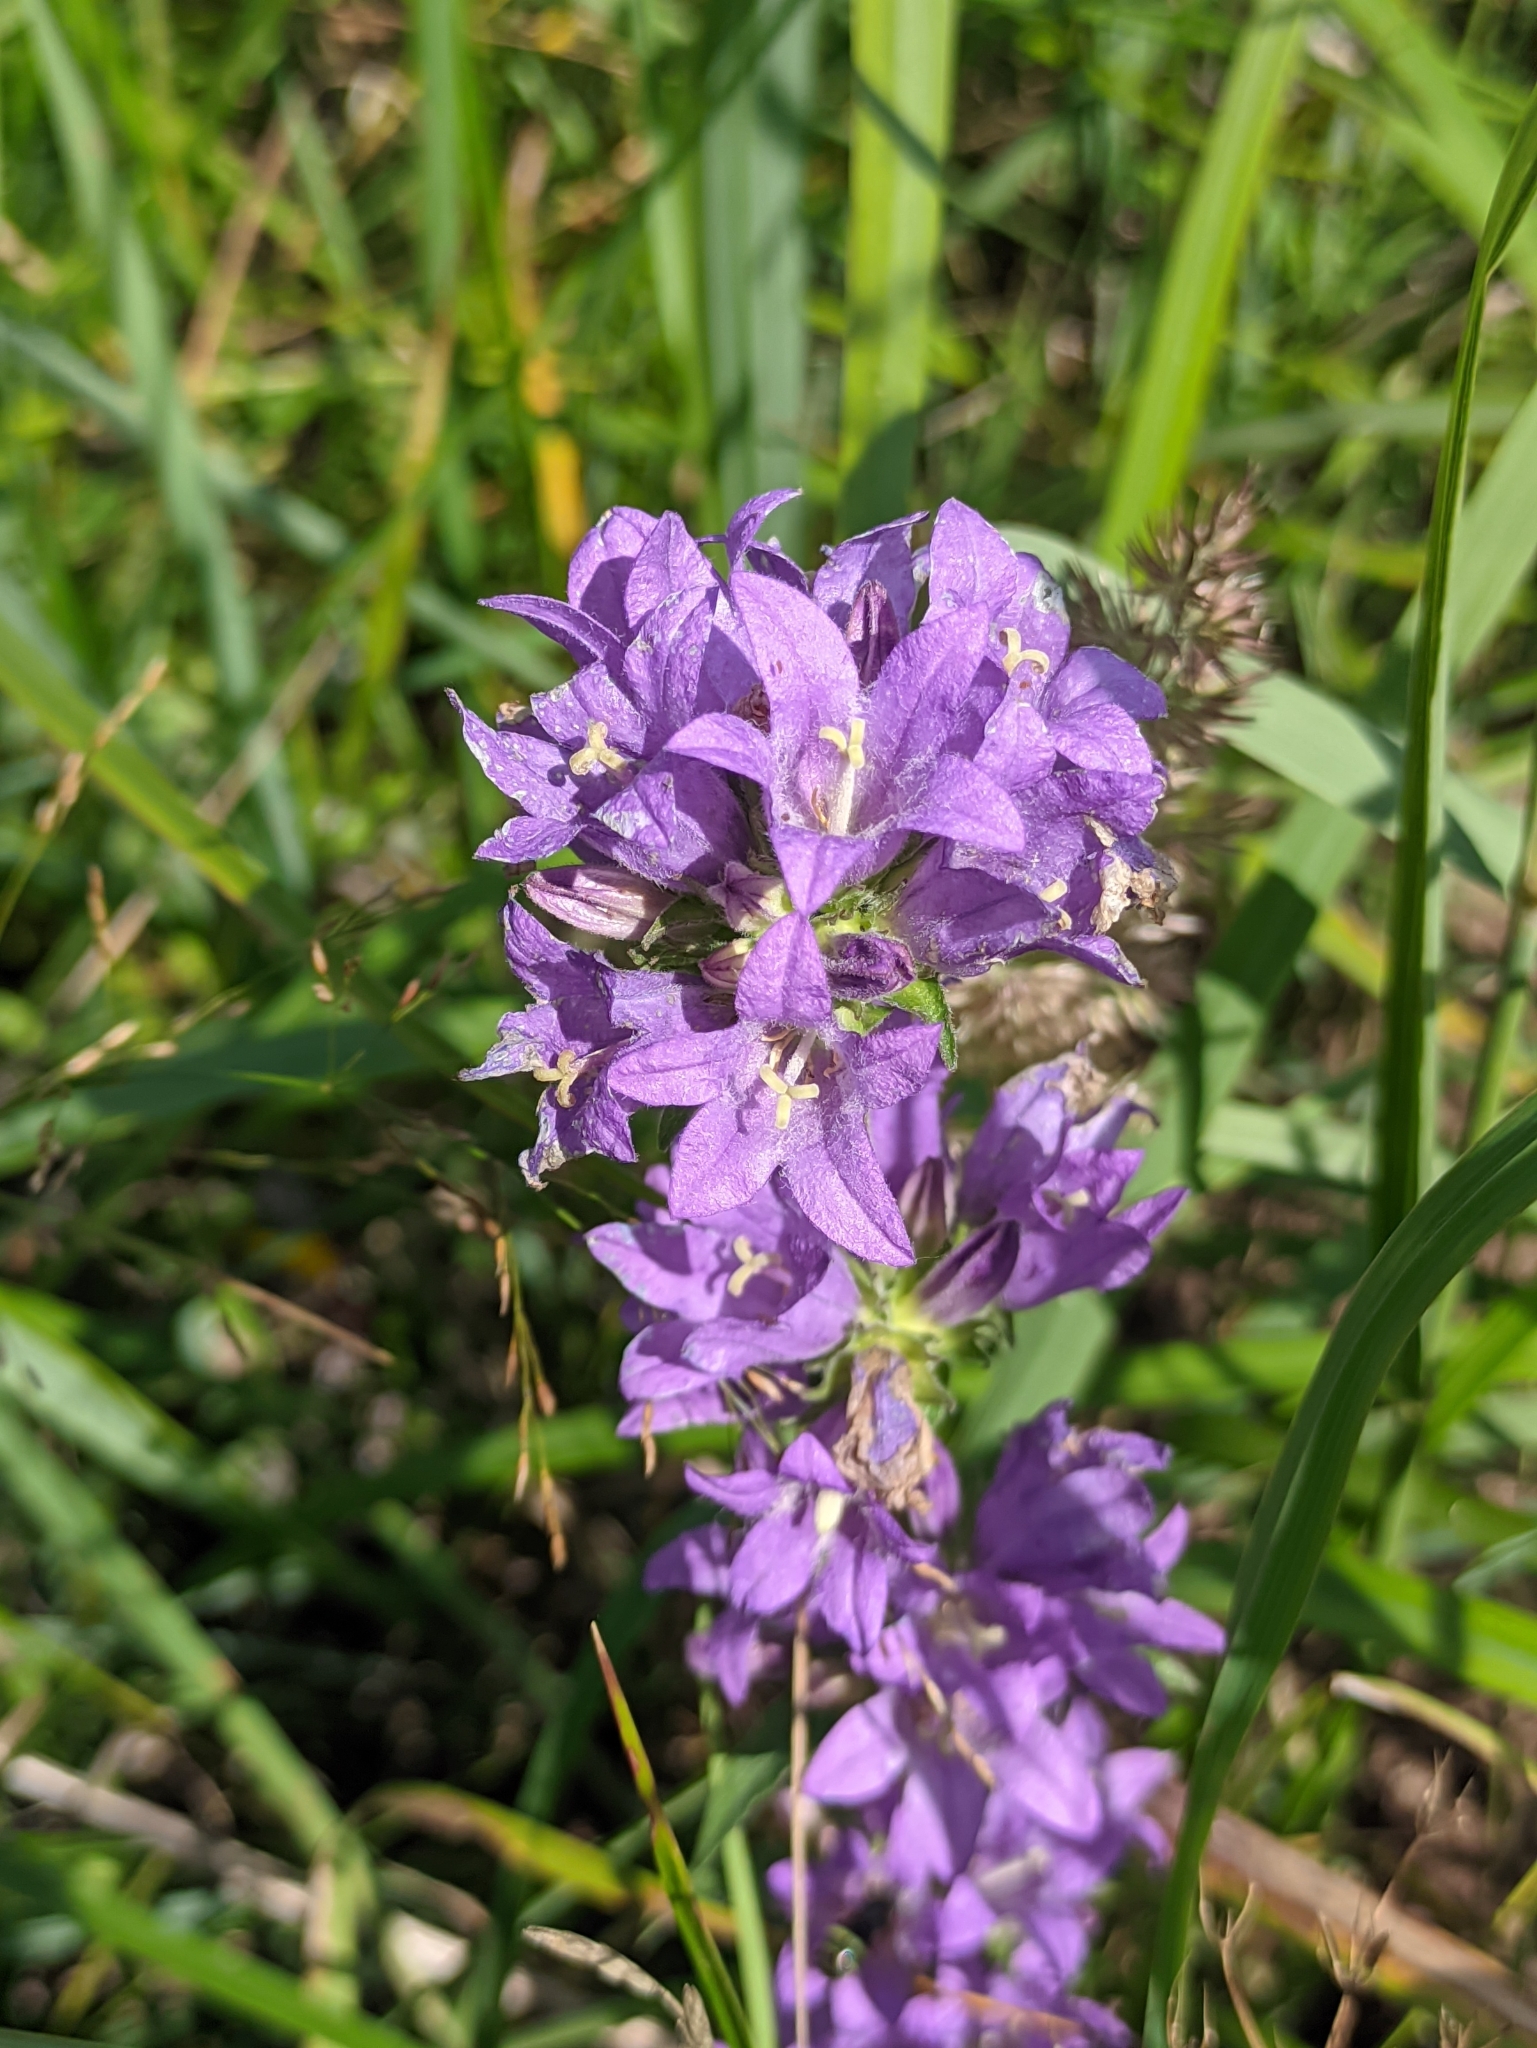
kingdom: Plantae
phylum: Tracheophyta
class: Magnoliopsida
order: Asterales
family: Campanulaceae
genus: Campanula
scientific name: Campanula glomerata
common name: Clustered bellflower
